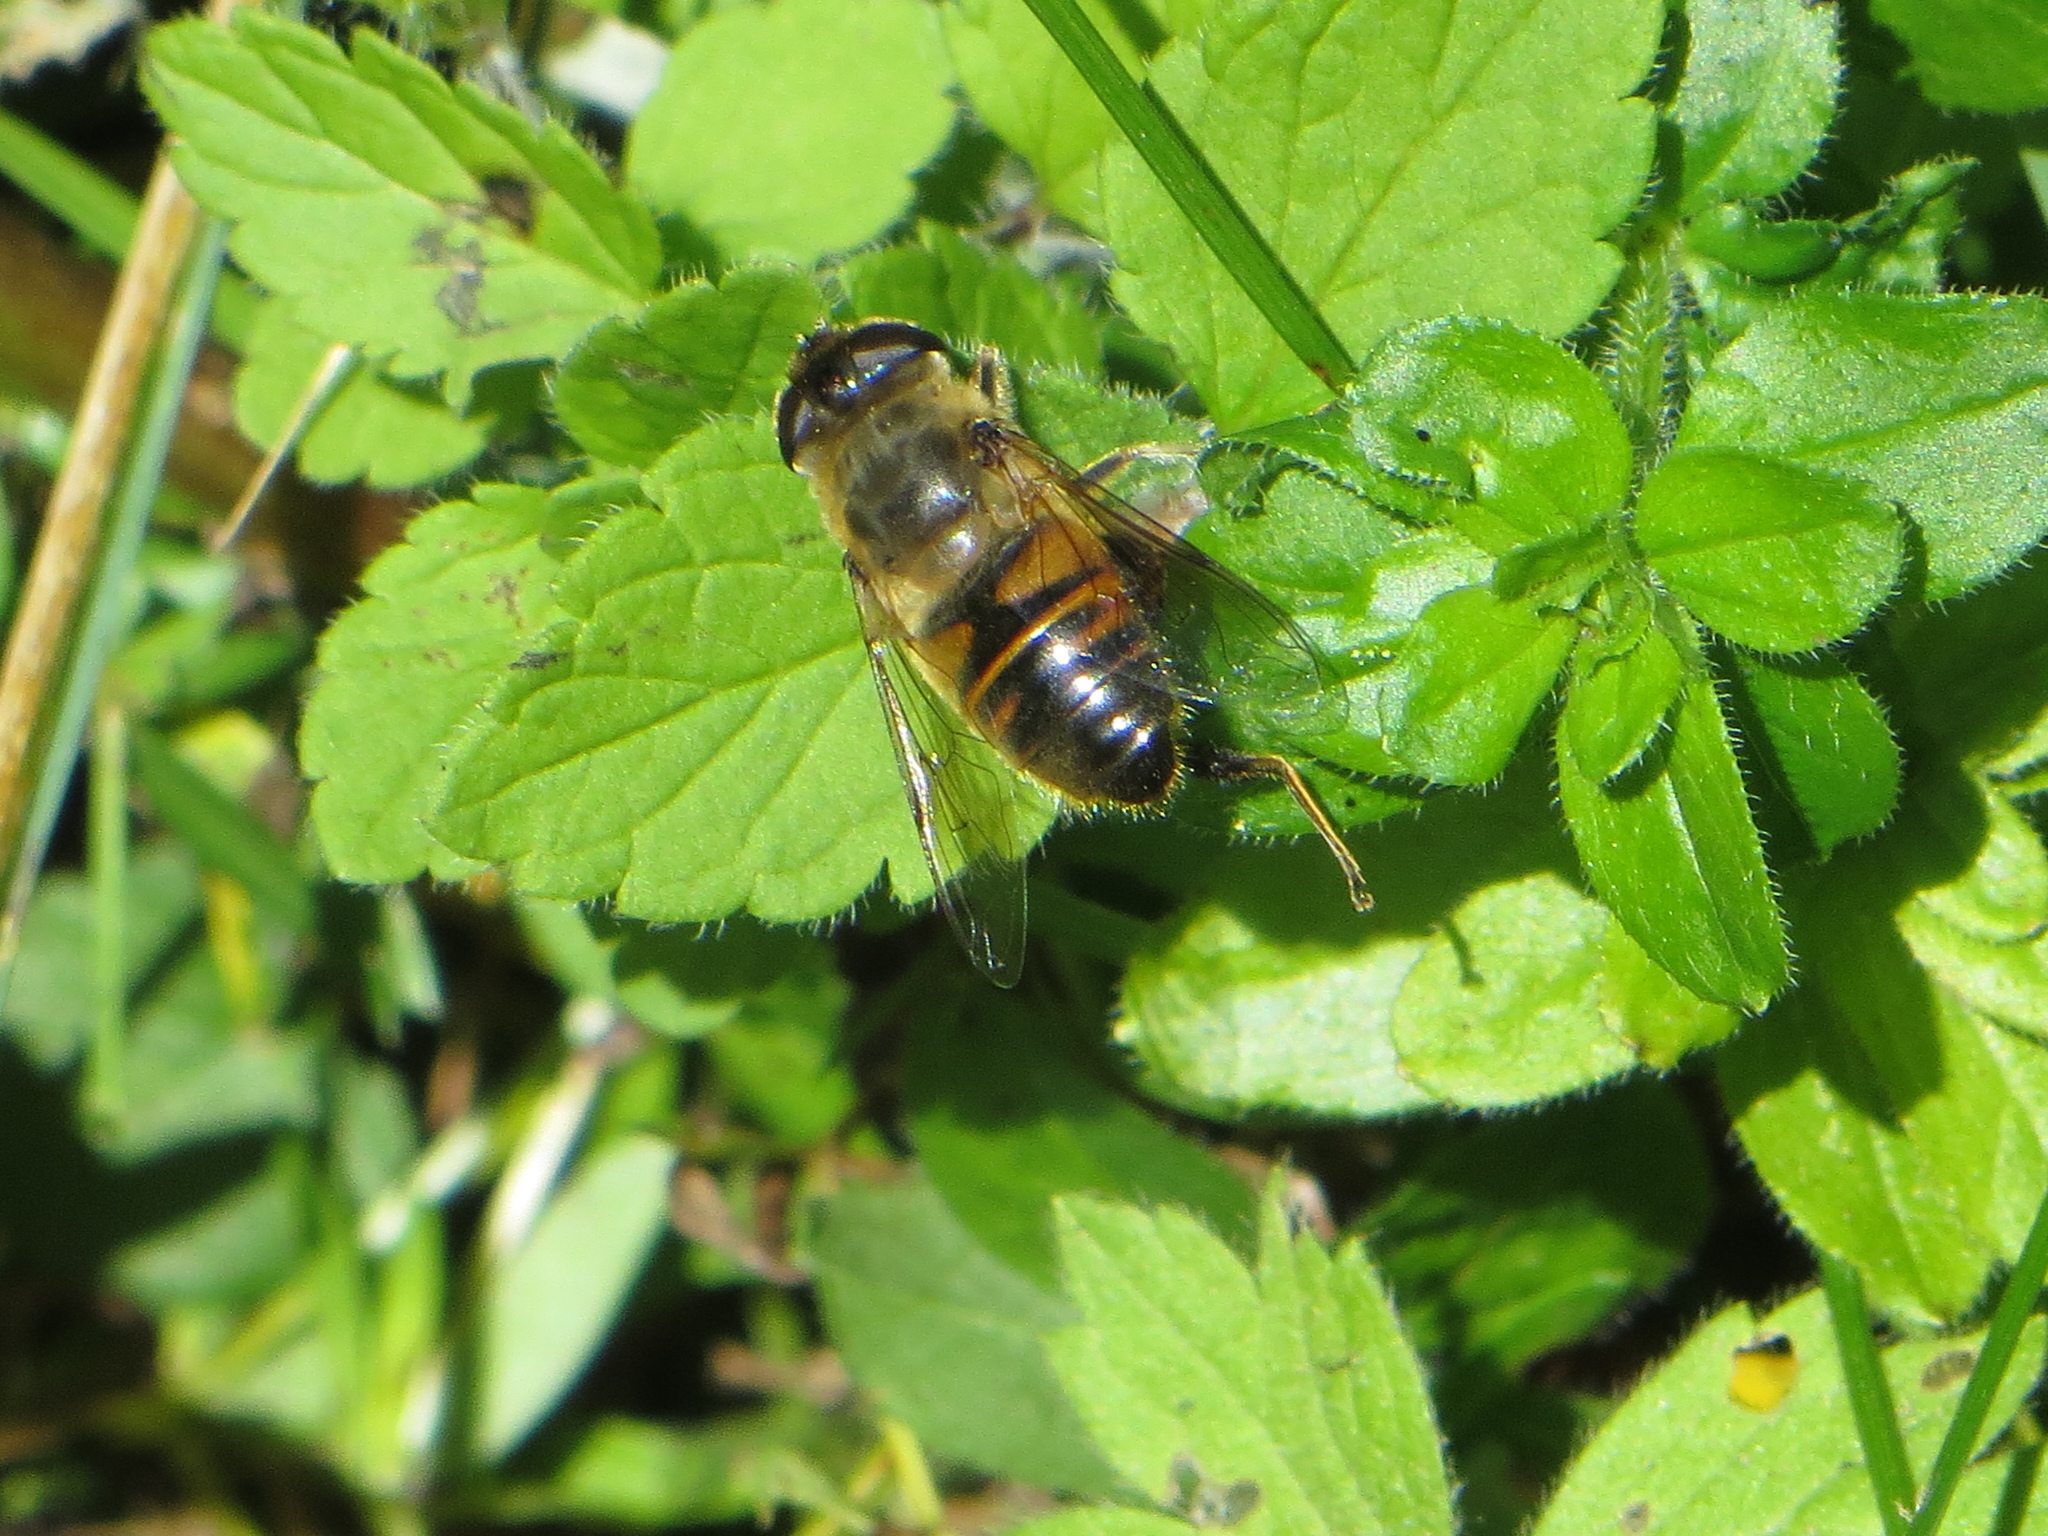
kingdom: Animalia
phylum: Arthropoda
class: Insecta
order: Diptera
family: Syrphidae
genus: Eristalis
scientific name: Eristalis tenax
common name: Drone fly
